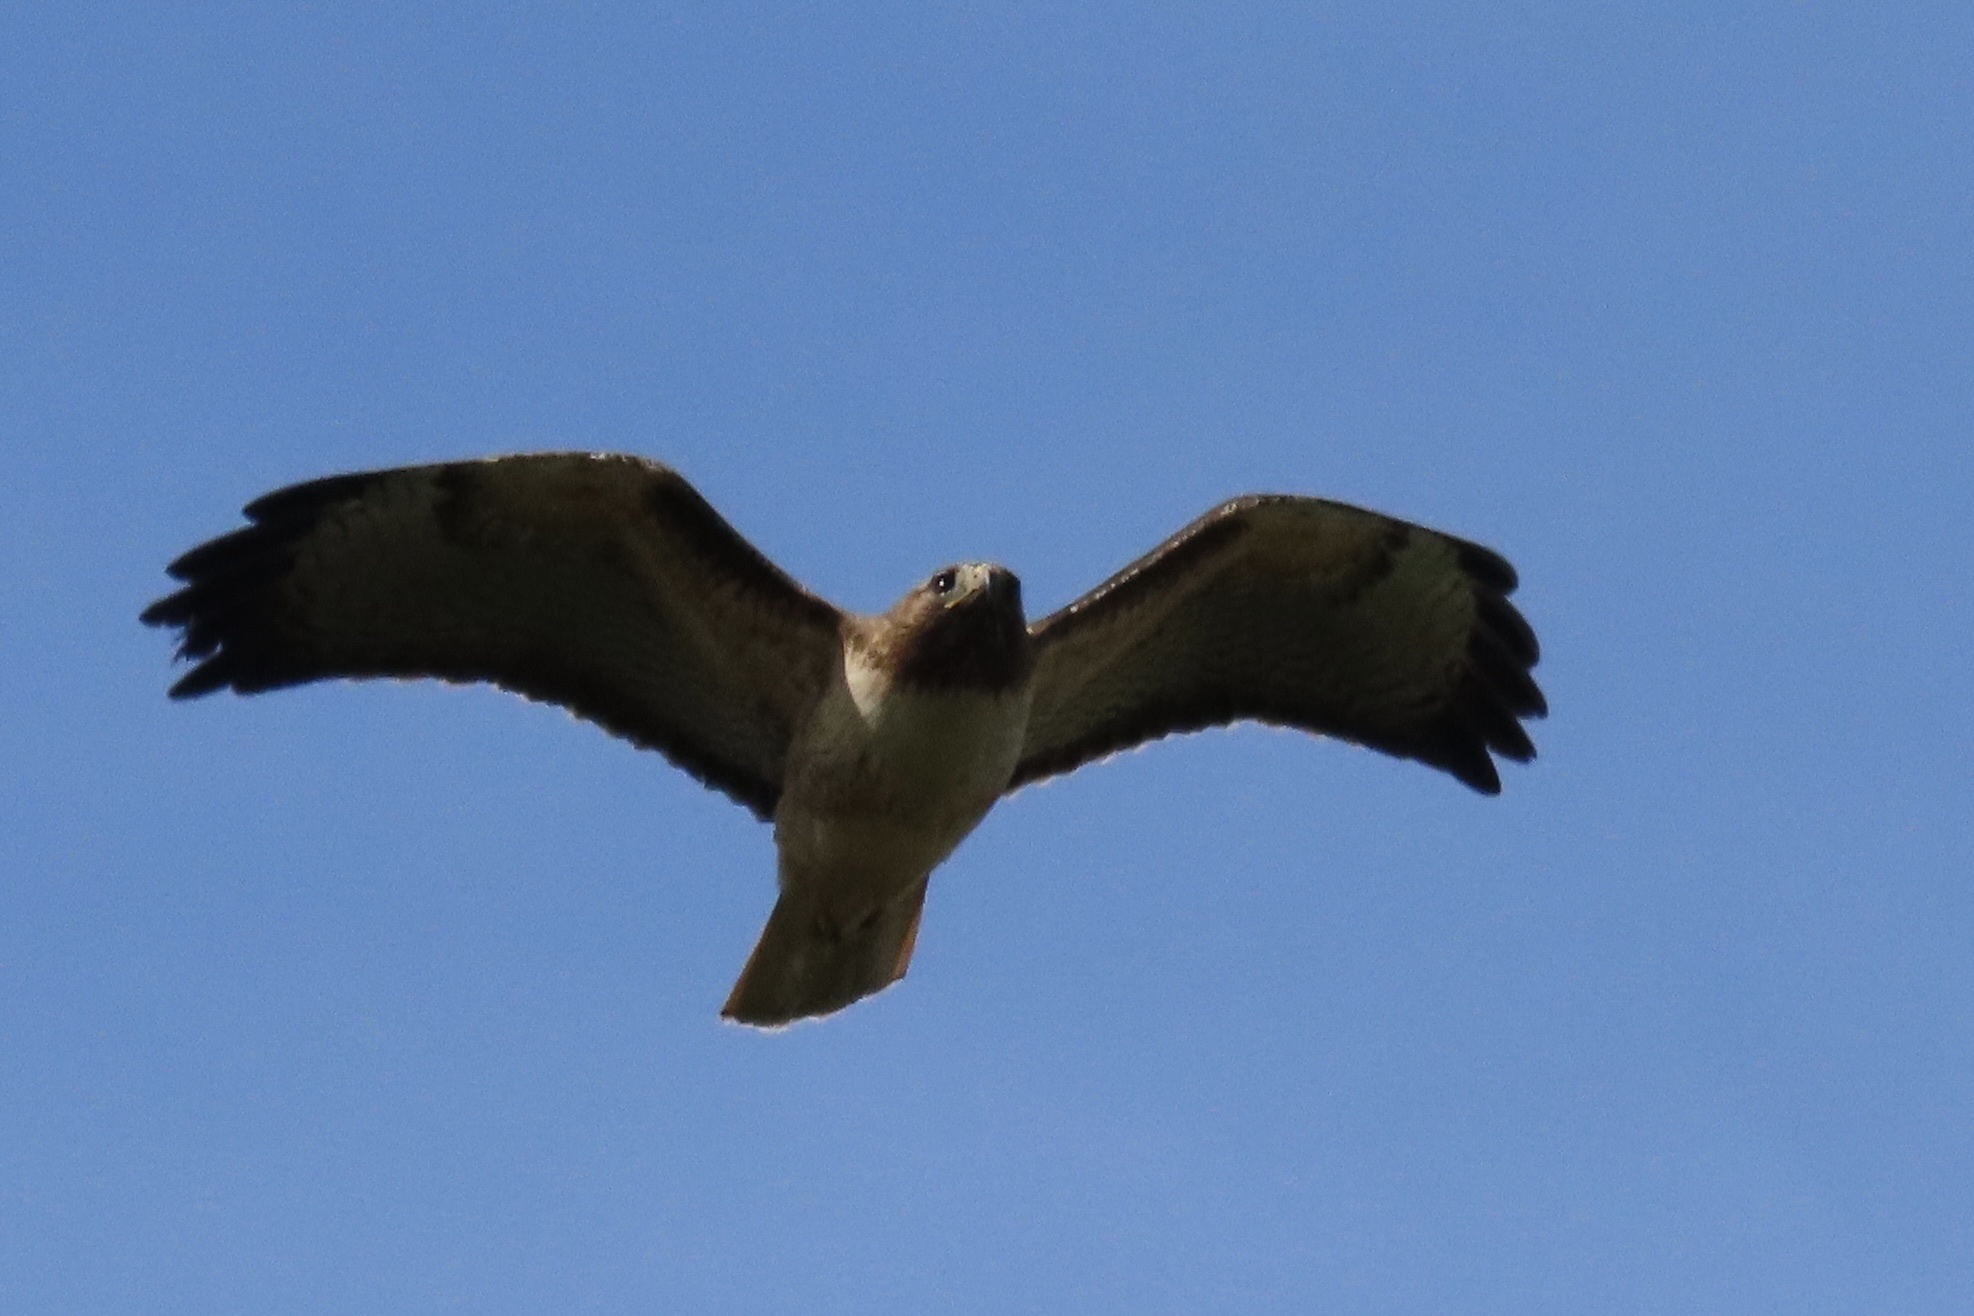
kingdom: Animalia
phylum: Chordata
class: Aves
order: Accipitriformes
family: Accipitridae
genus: Buteo
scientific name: Buteo jamaicensis
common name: Red-tailed hawk
